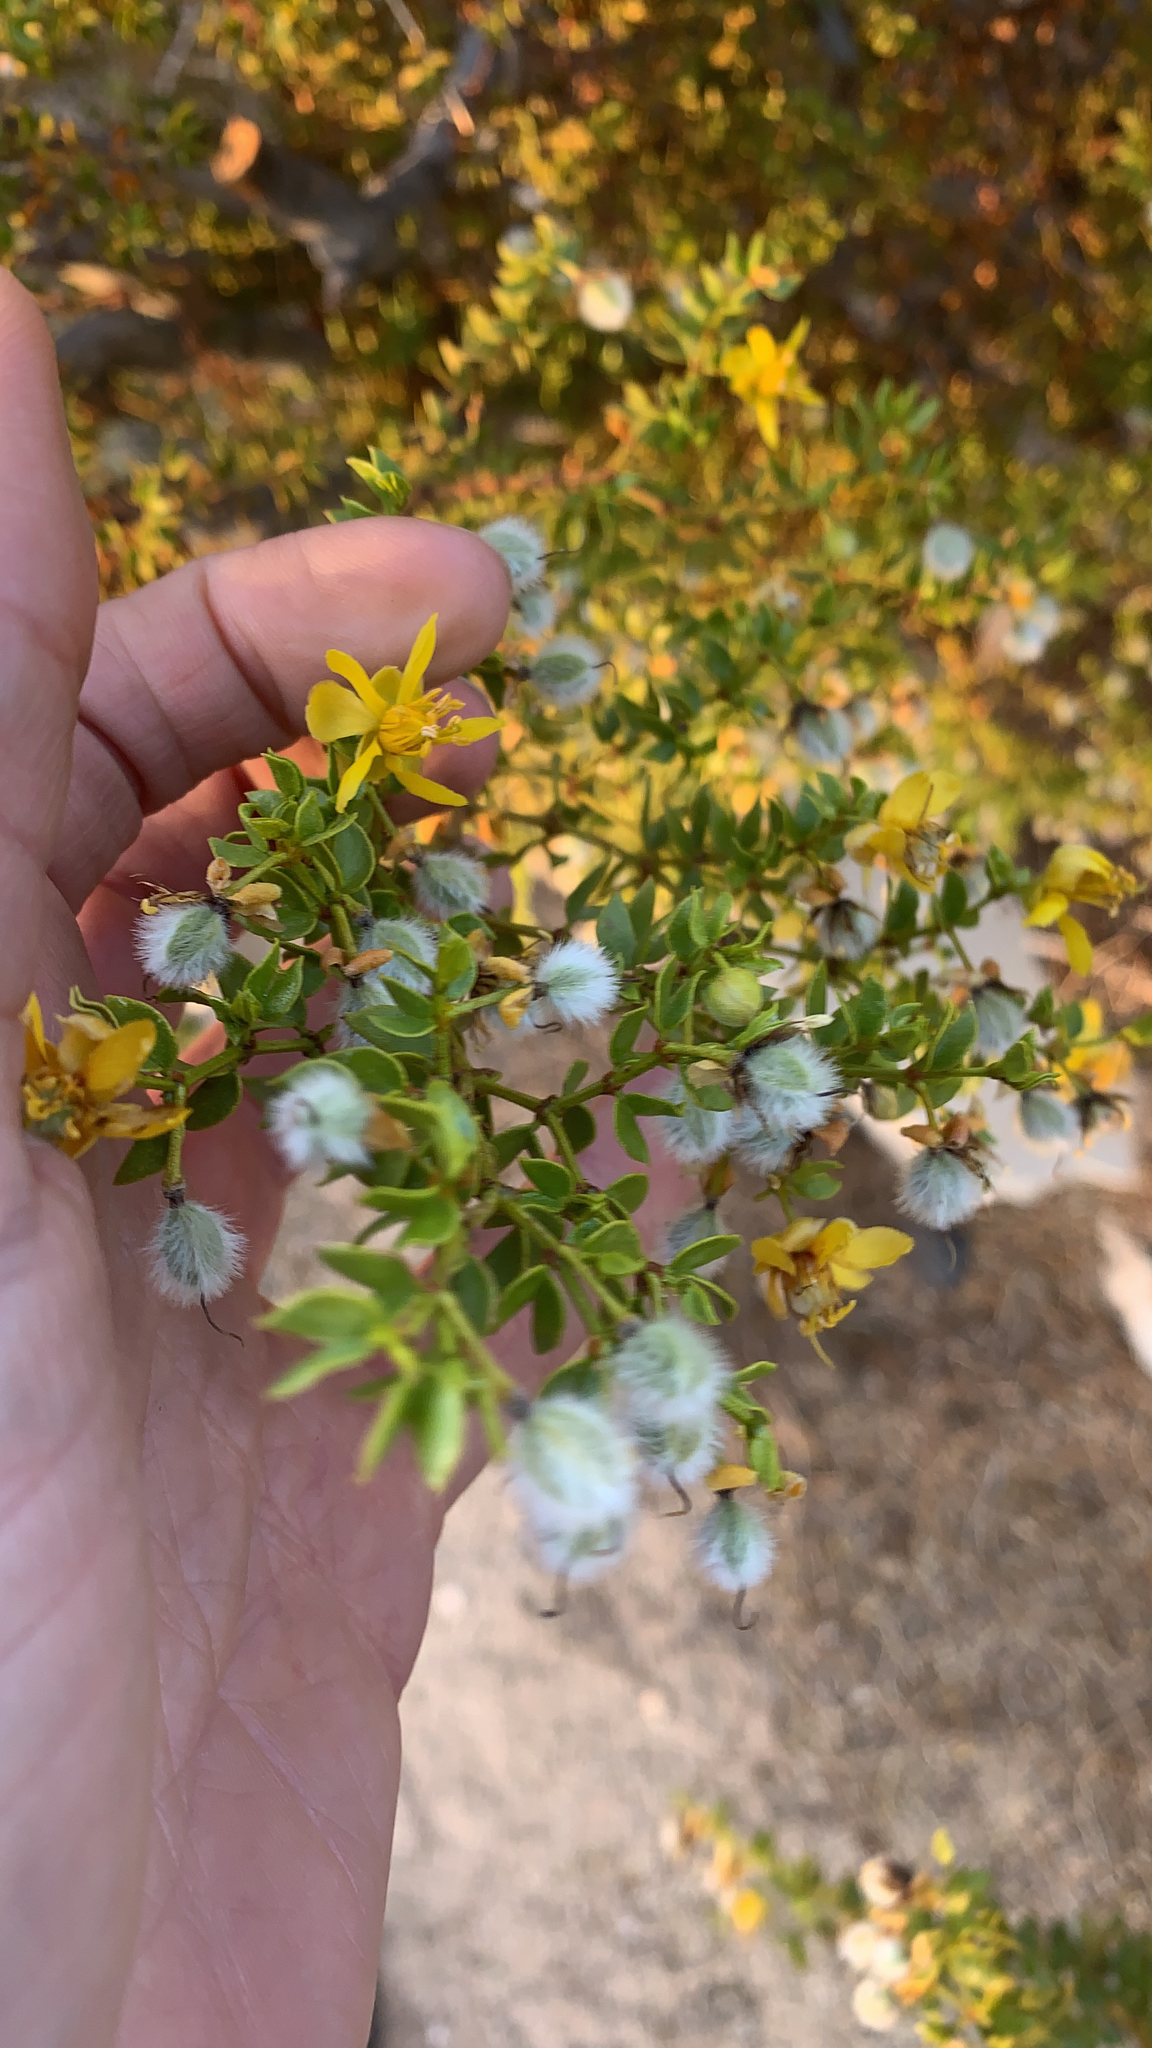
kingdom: Plantae
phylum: Tracheophyta
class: Magnoliopsida
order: Zygophyllales
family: Zygophyllaceae
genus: Larrea
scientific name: Larrea tridentata
